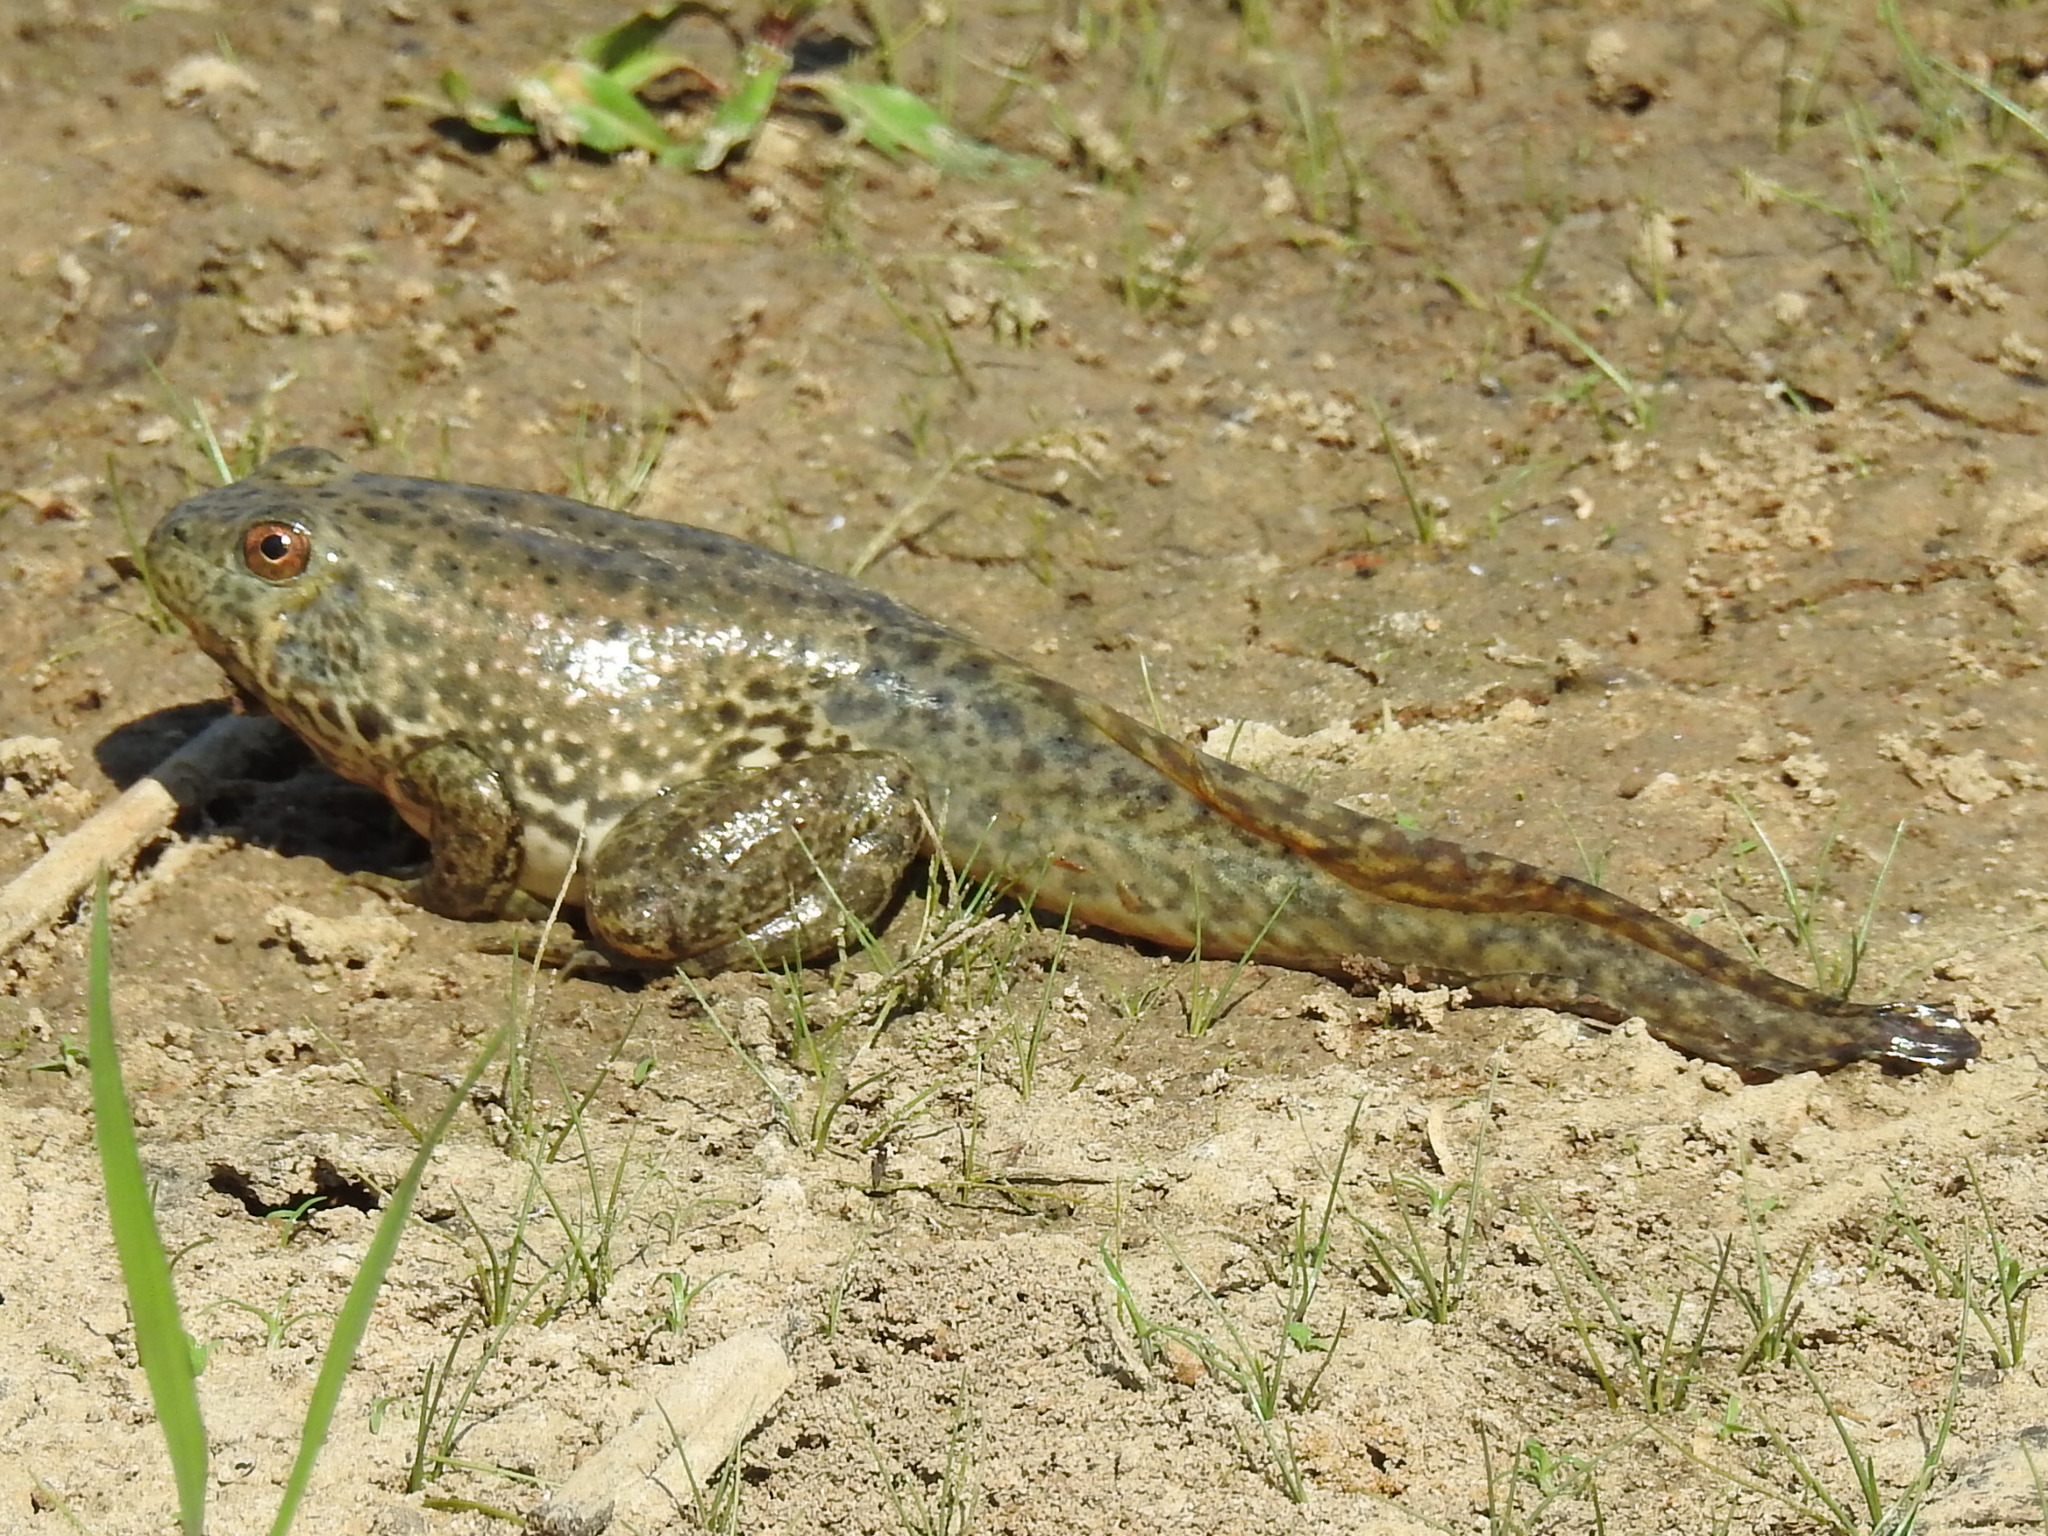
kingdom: Animalia
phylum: Chordata
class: Amphibia
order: Anura
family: Ranidae
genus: Lithobates
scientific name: Lithobates catesbeianus
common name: American bullfrog
